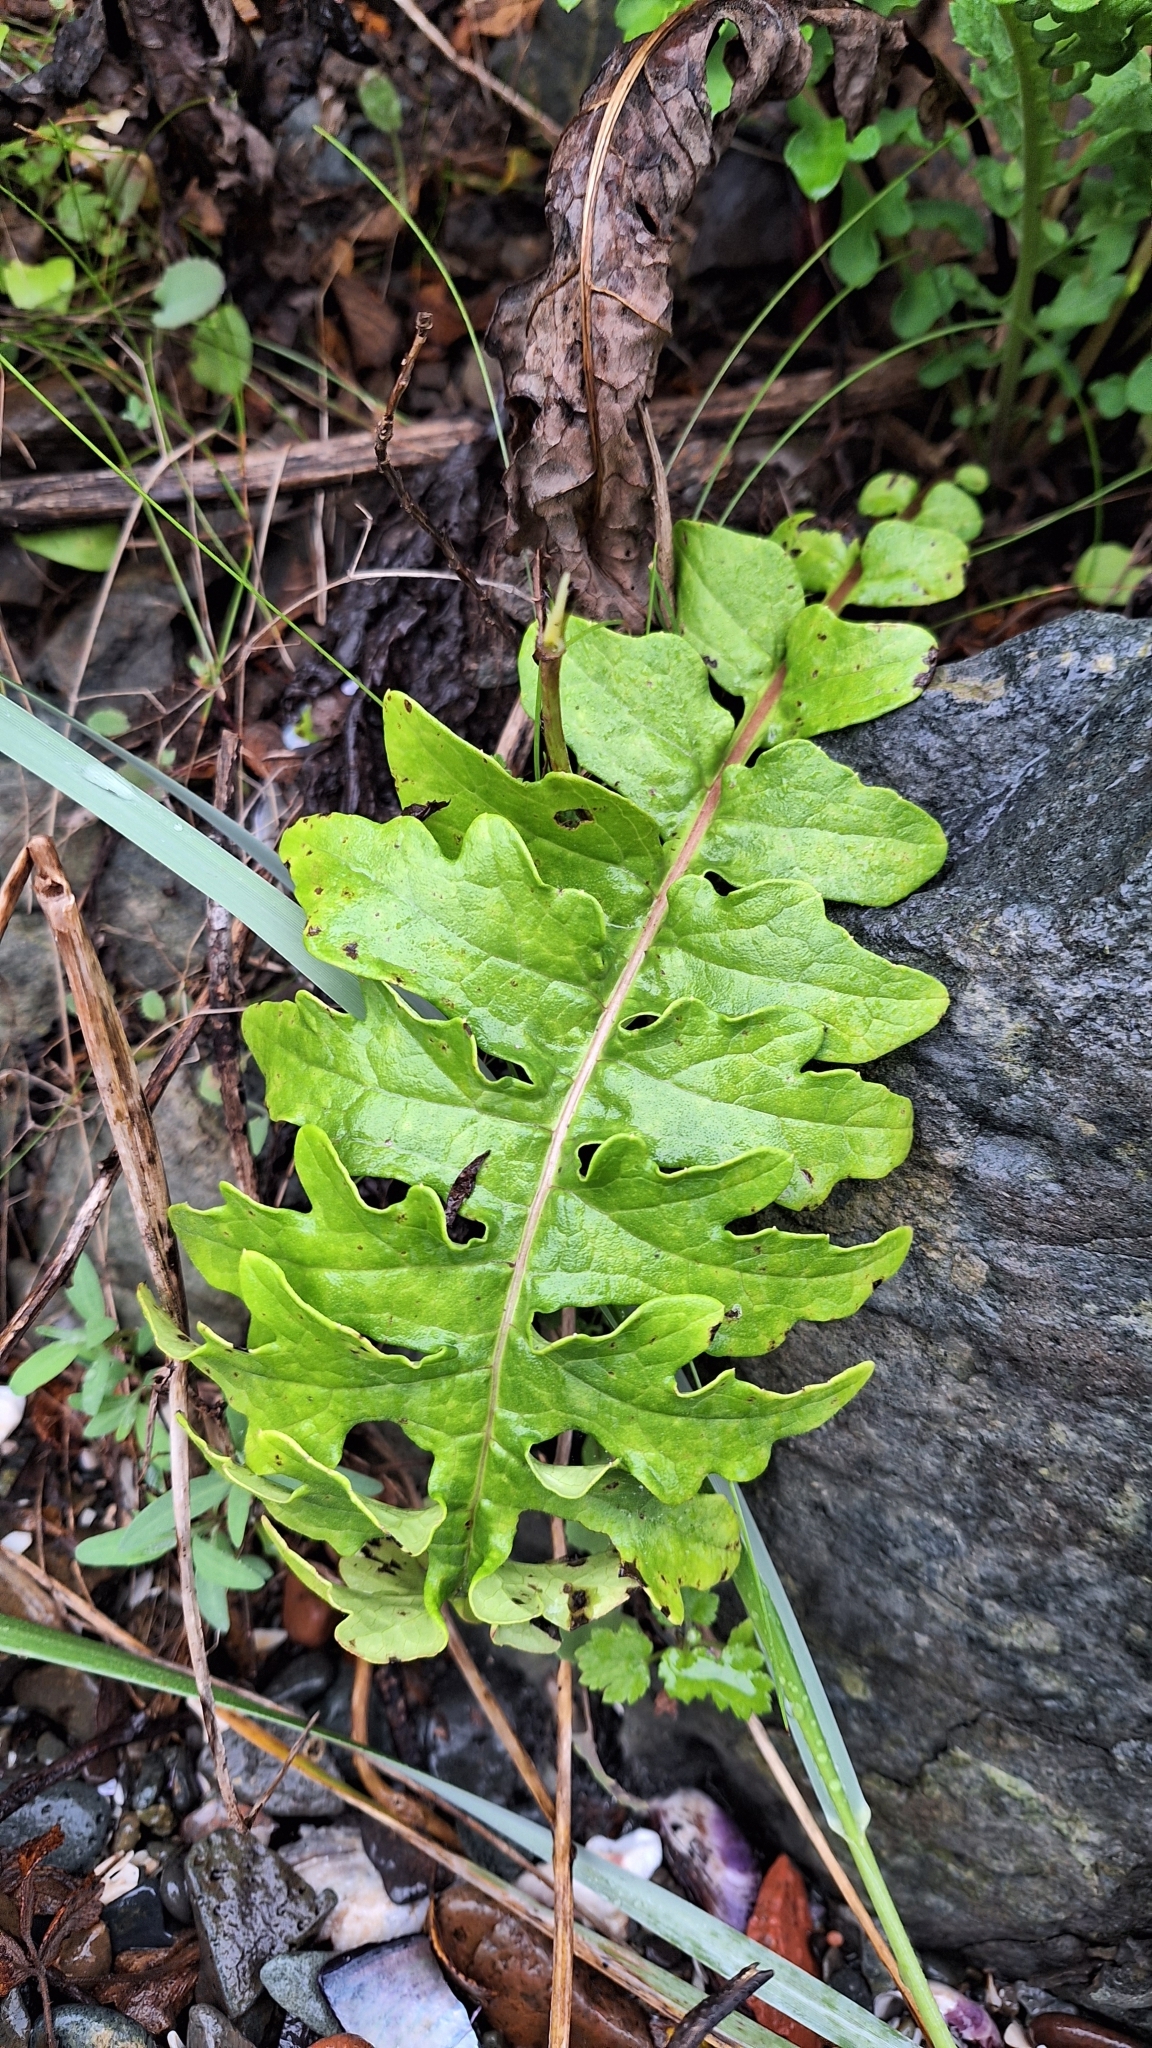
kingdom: Plantae
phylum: Tracheophyta
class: Magnoliopsida
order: Asterales
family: Asteraceae
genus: Saussurea
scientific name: Saussurea pulchella
